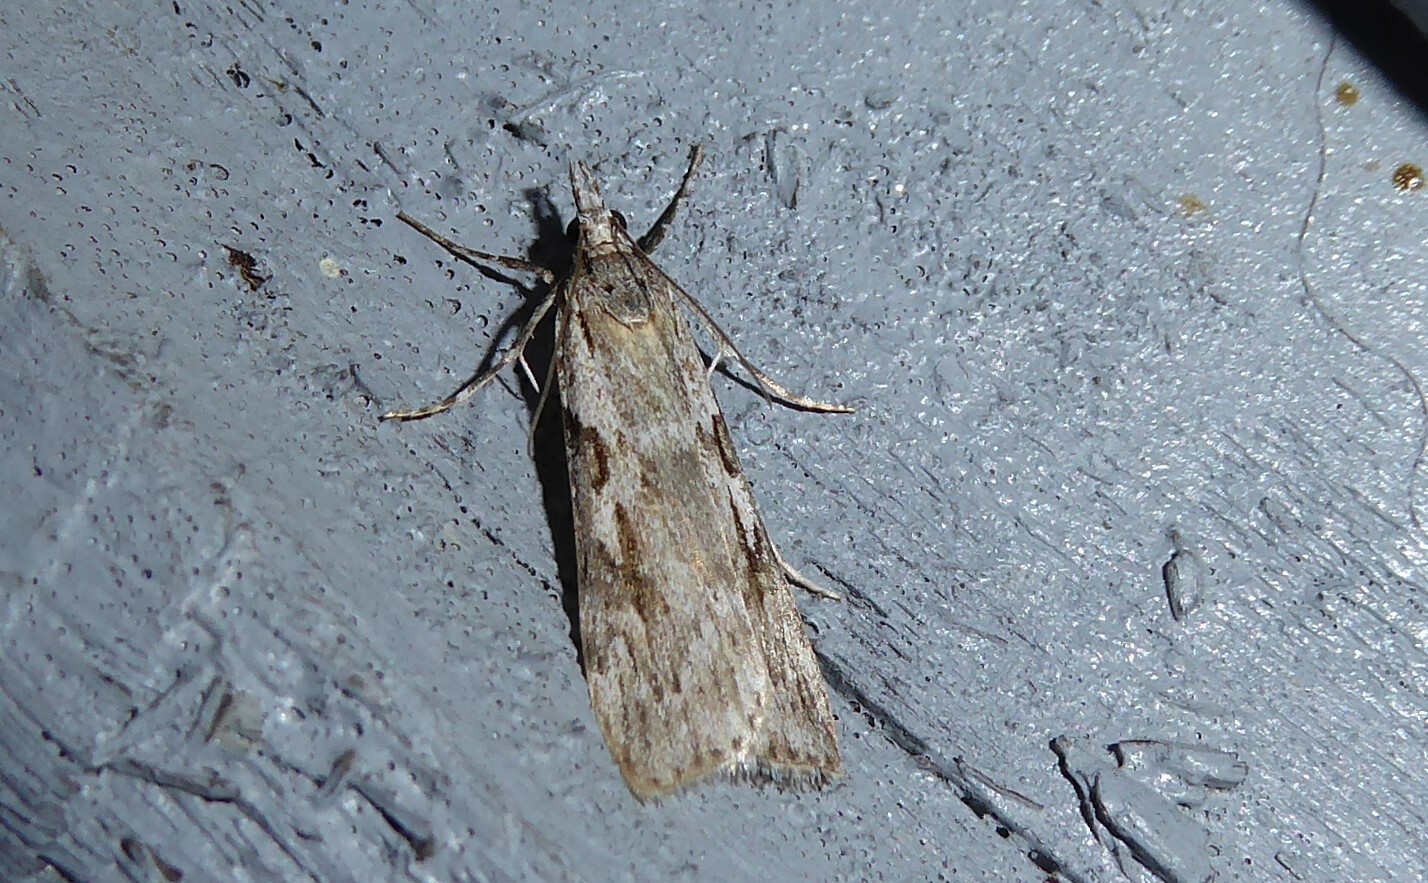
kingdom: Animalia
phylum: Arthropoda
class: Insecta
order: Lepidoptera
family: Crambidae
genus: Scoparia
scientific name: Scoparia halopis
